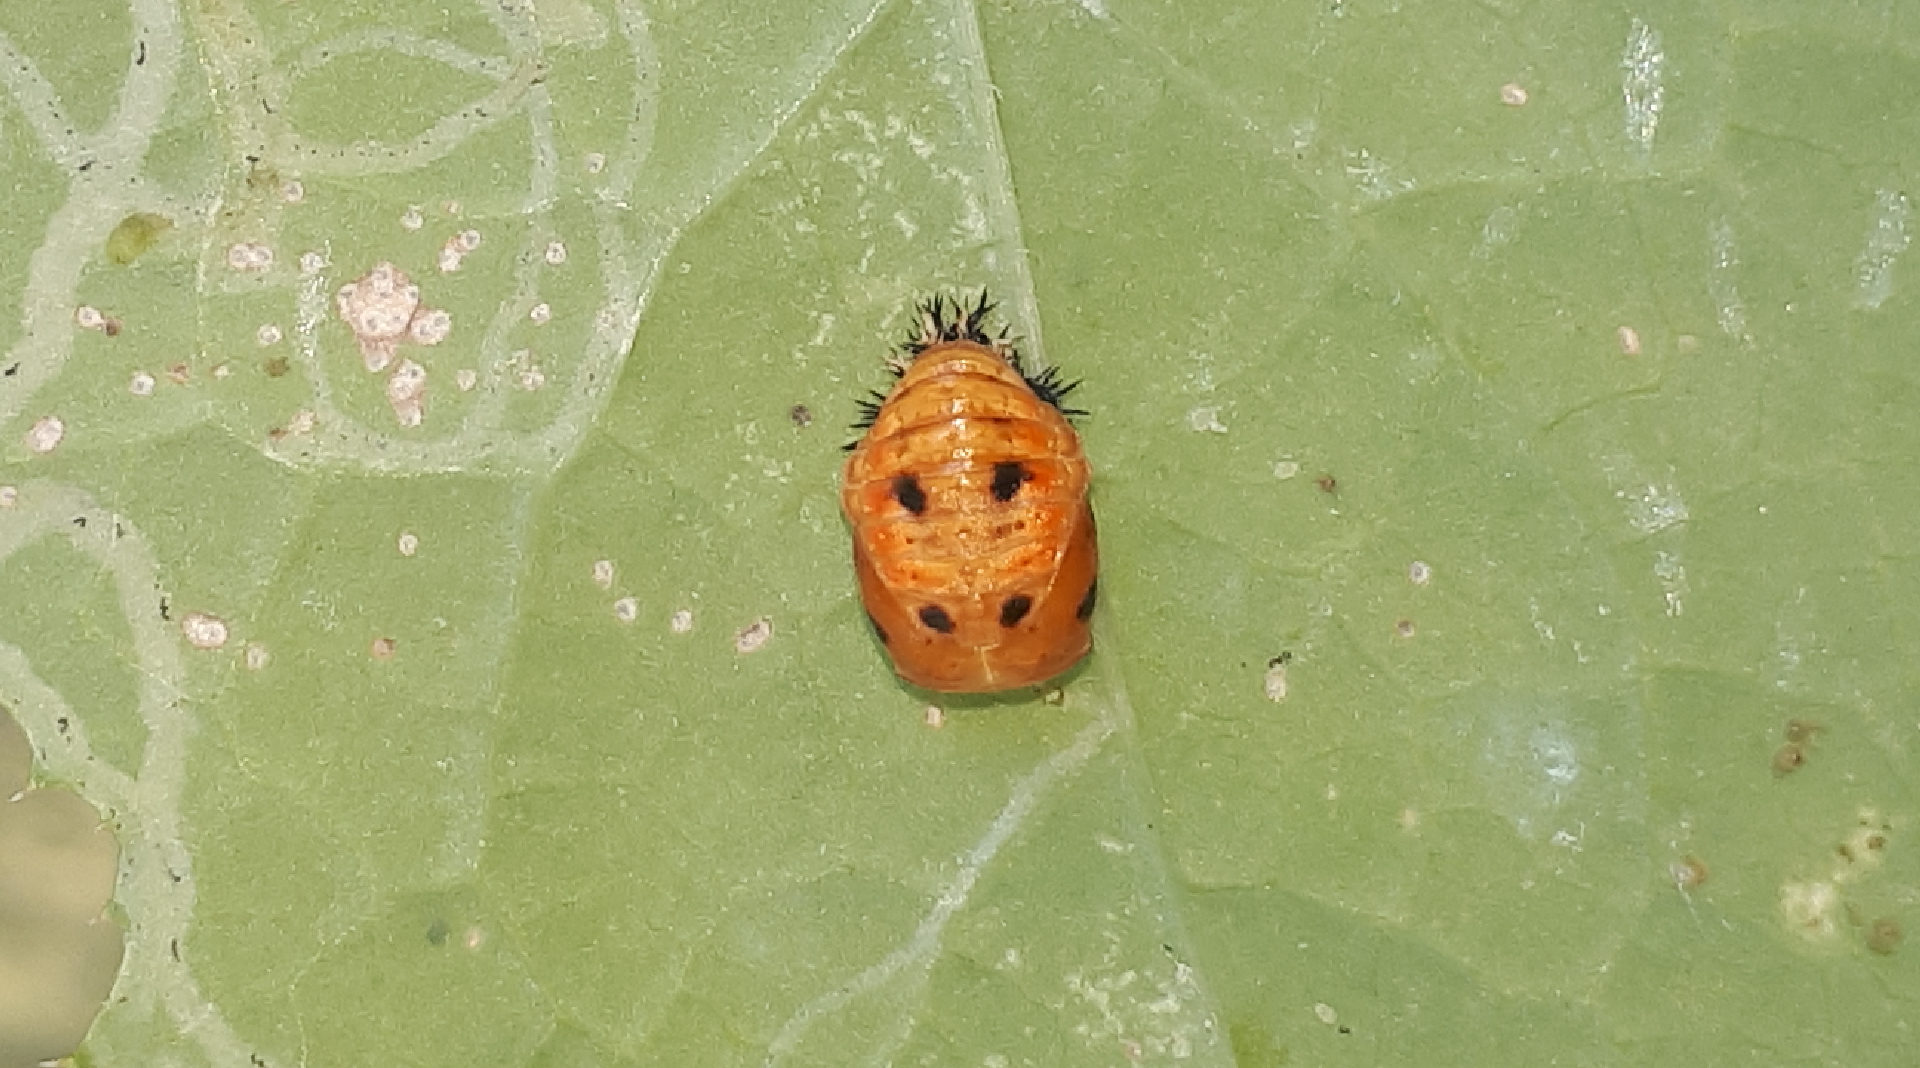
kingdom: Animalia
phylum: Arthropoda
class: Insecta
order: Coleoptera
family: Coccinellidae
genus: Harmonia
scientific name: Harmonia axyridis
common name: Harlequin ladybird
